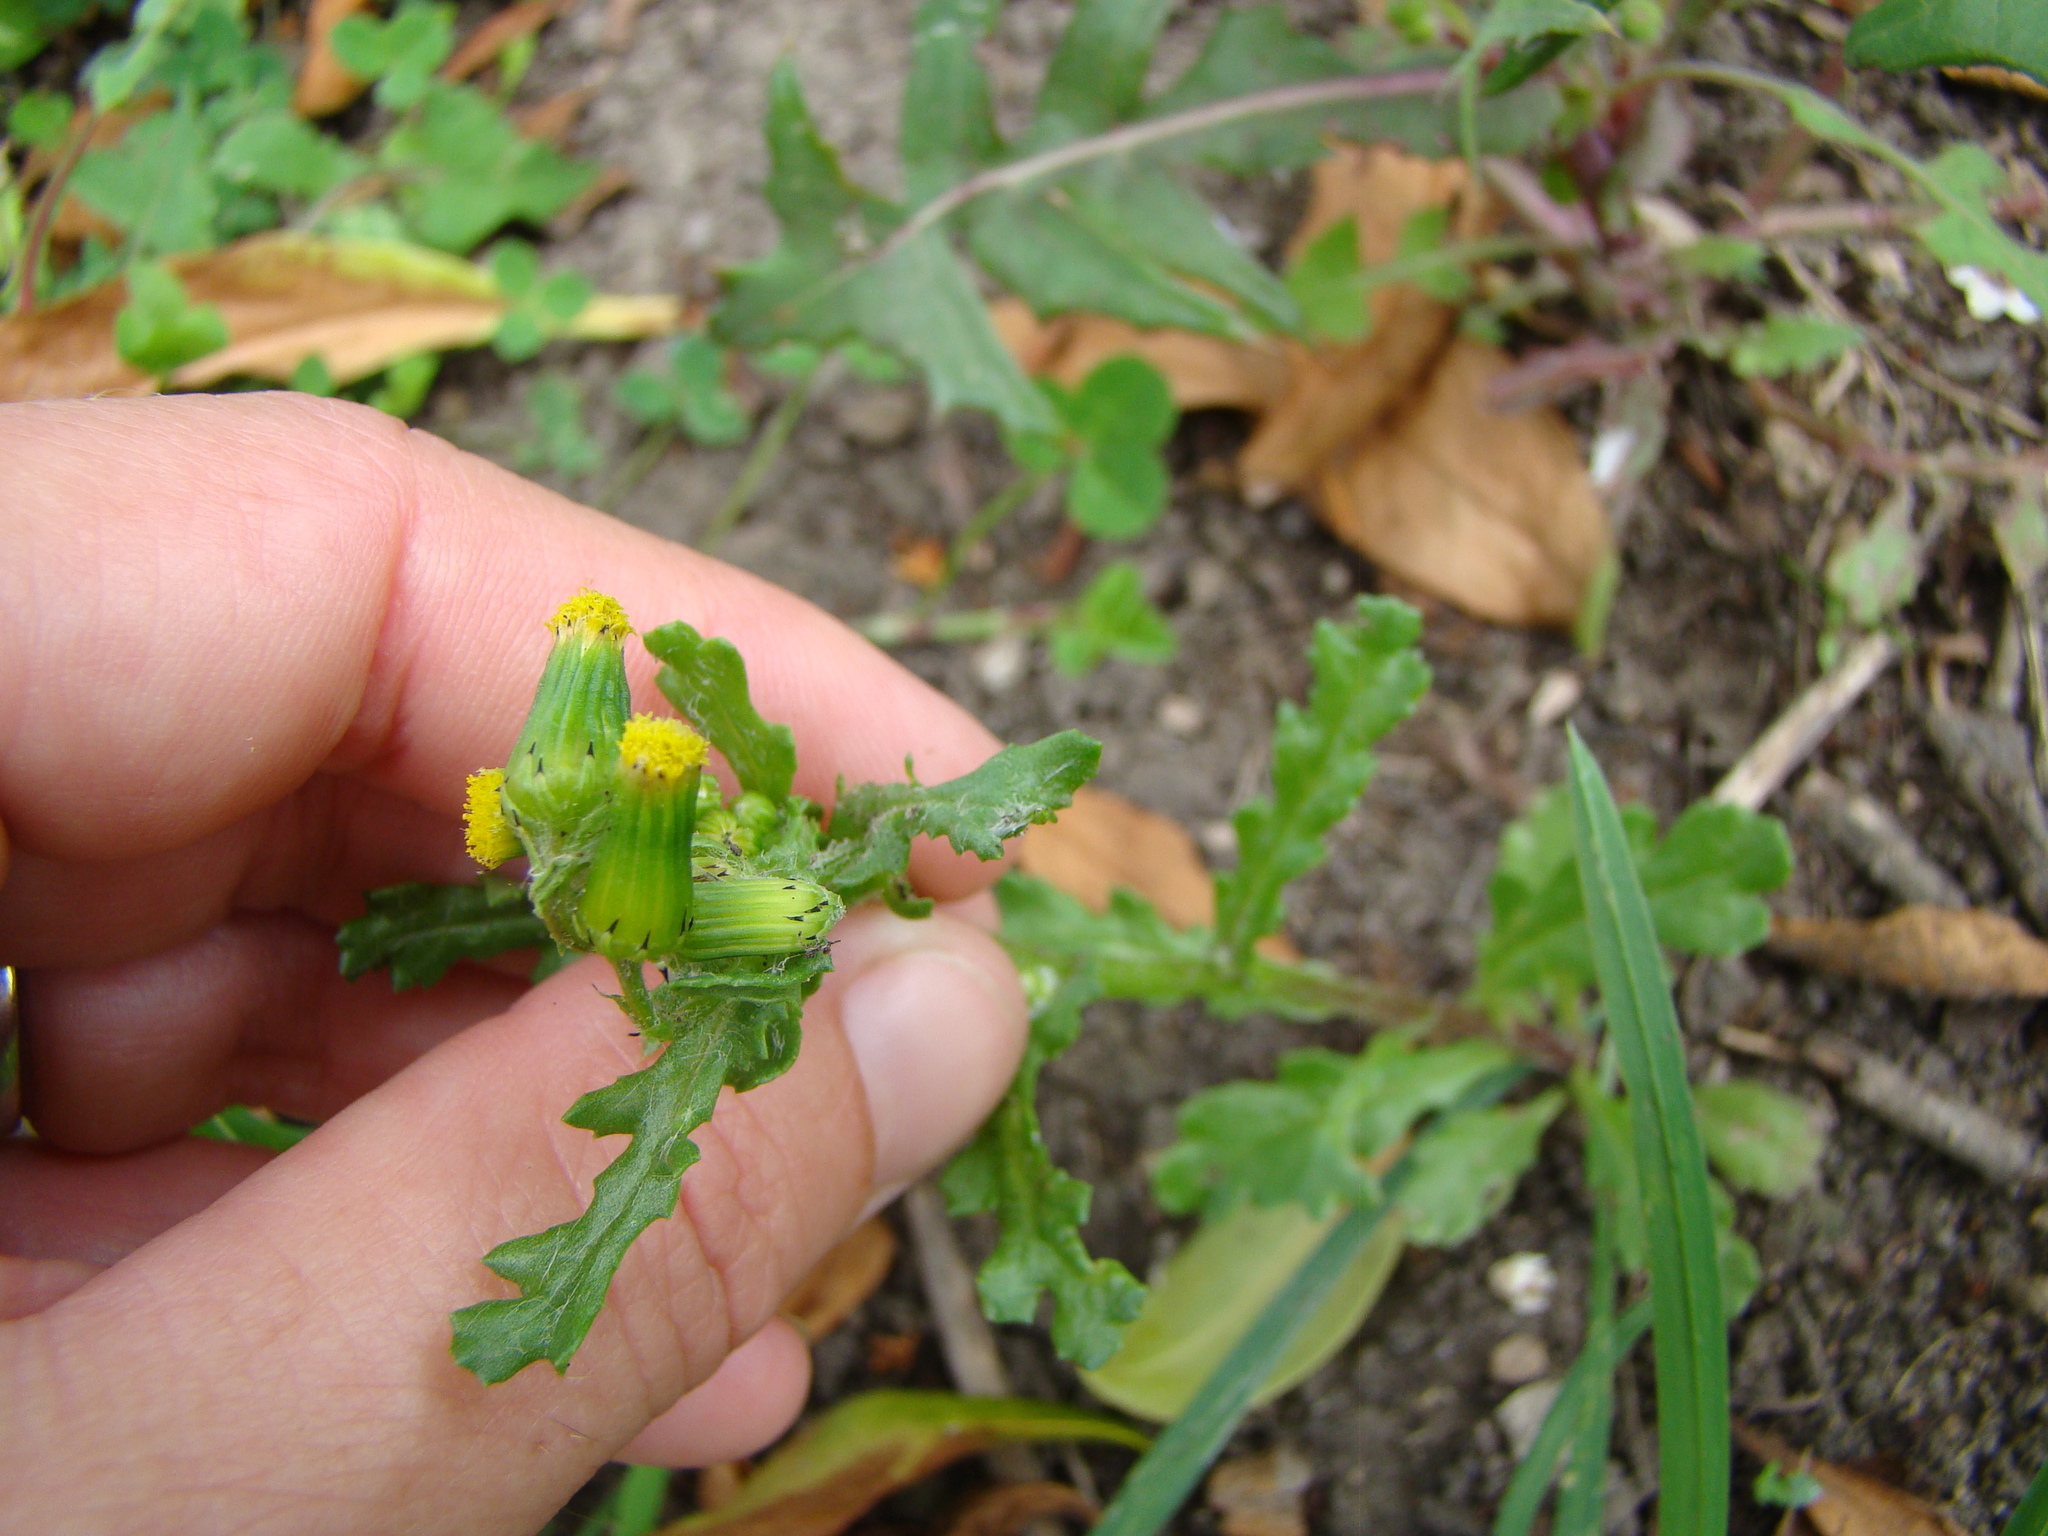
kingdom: Plantae
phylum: Tracheophyta
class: Magnoliopsida
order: Asterales
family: Asteraceae
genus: Senecio
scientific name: Senecio vulgaris
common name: Old-man-in-the-spring
